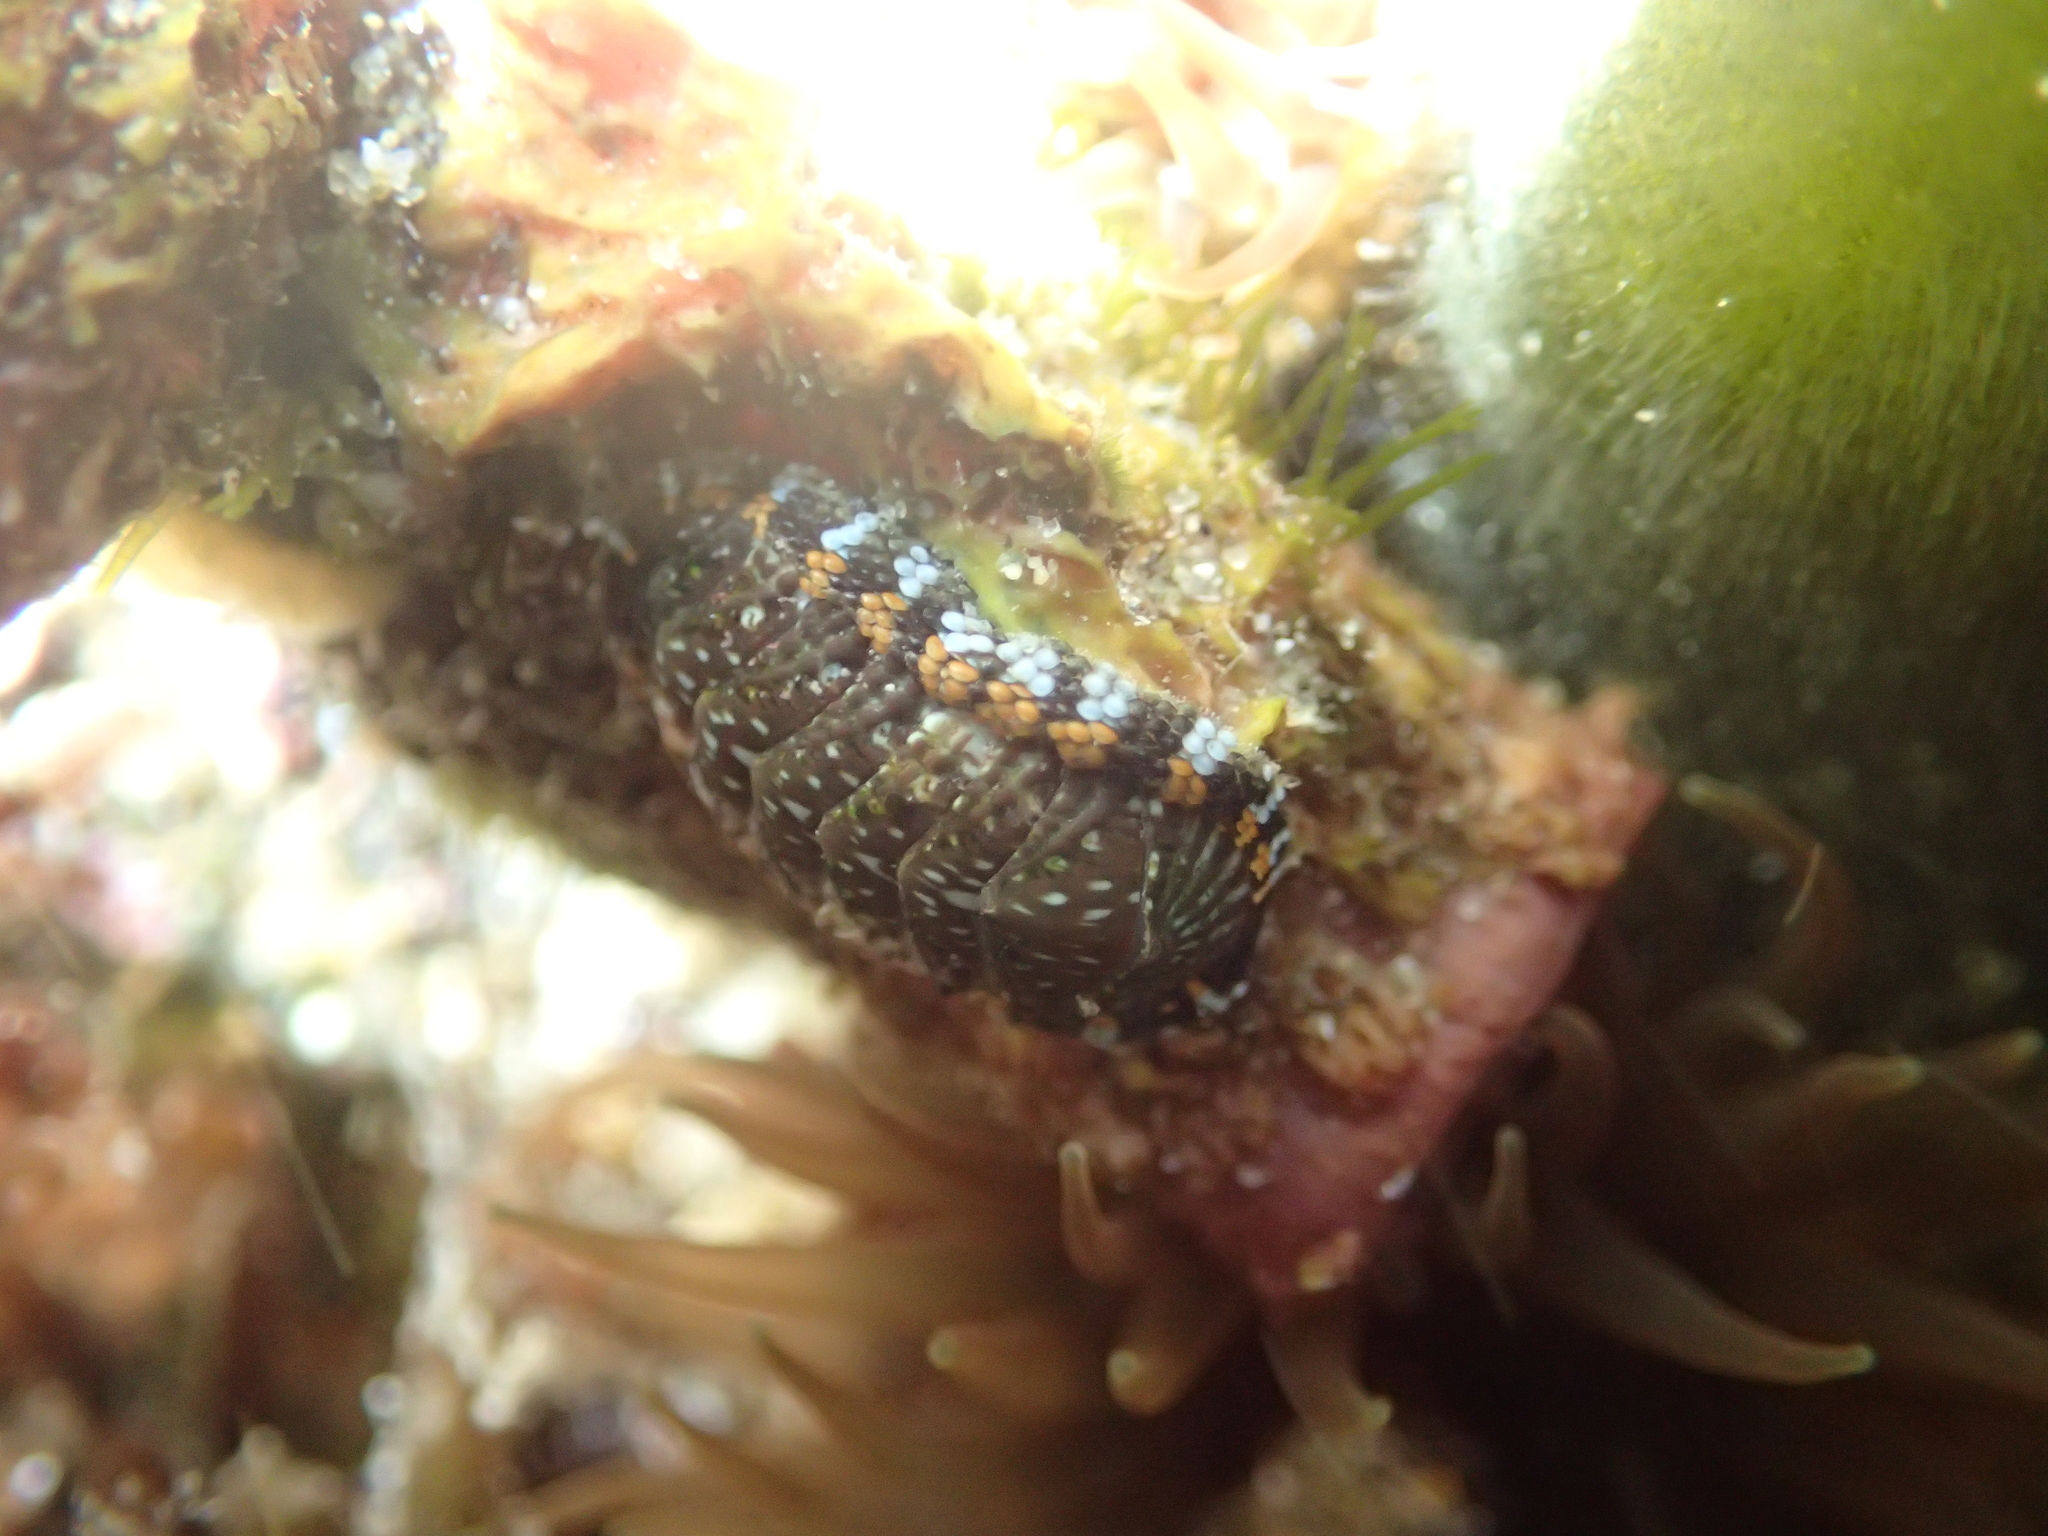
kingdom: Animalia
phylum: Mollusca
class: Polyplacophora
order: Chitonida
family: Chitonidae
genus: Sypharochiton
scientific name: Sypharochiton sinclairi
